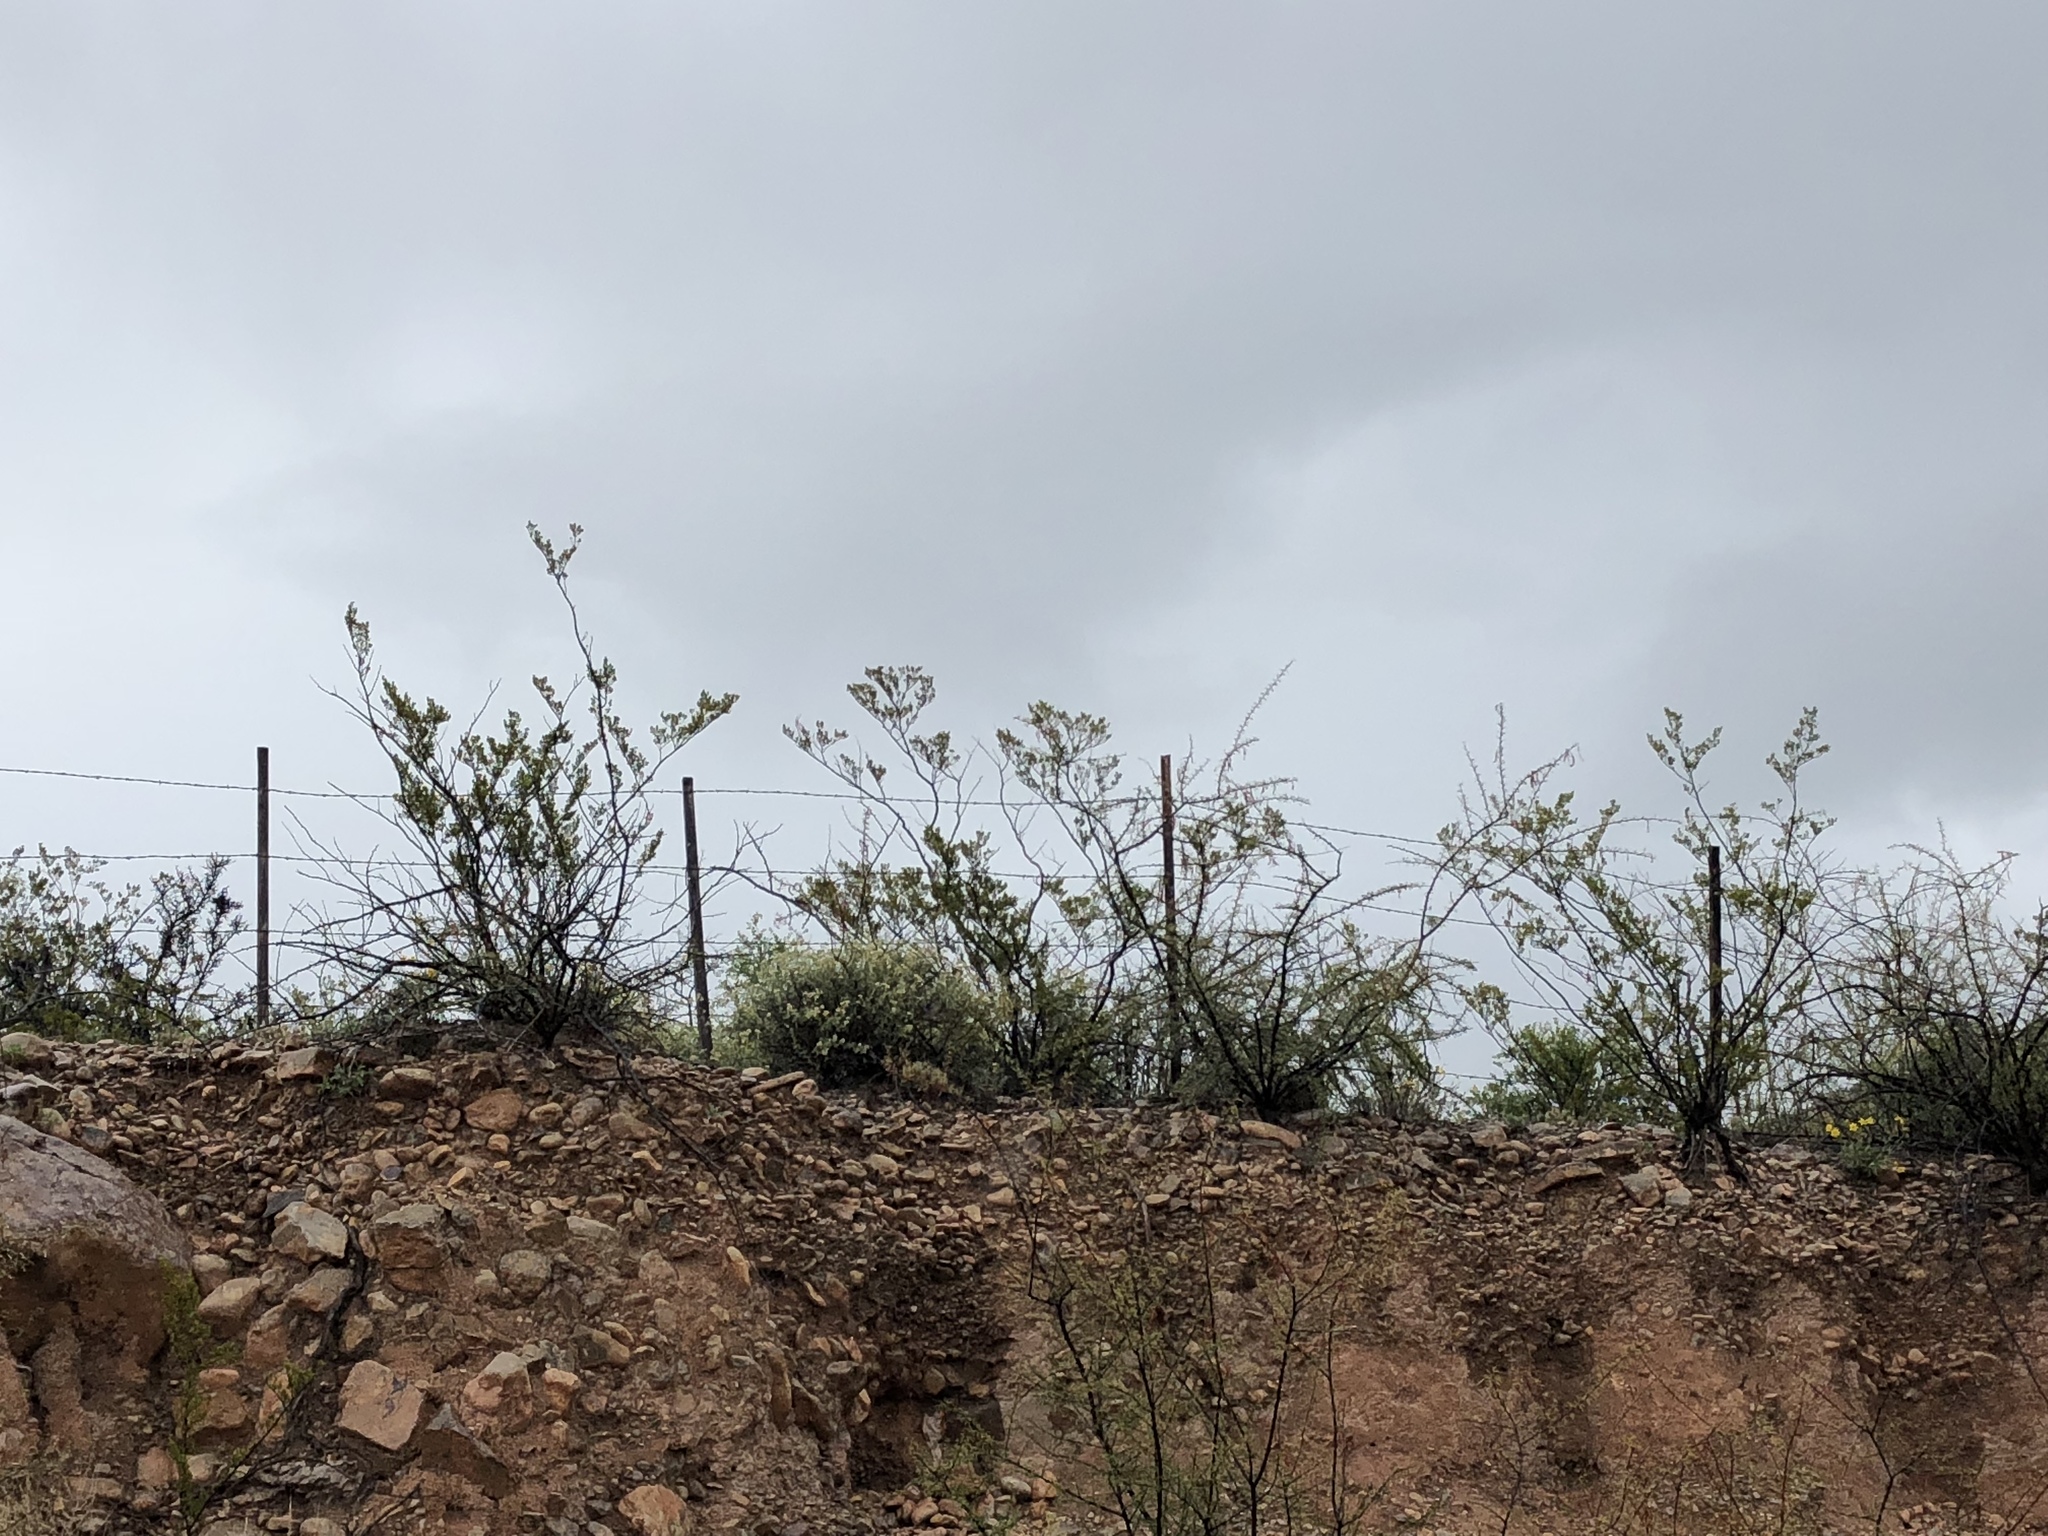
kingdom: Plantae
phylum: Tracheophyta
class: Magnoliopsida
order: Zygophyllales
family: Zygophyllaceae
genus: Larrea
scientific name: Larrea tridentata
